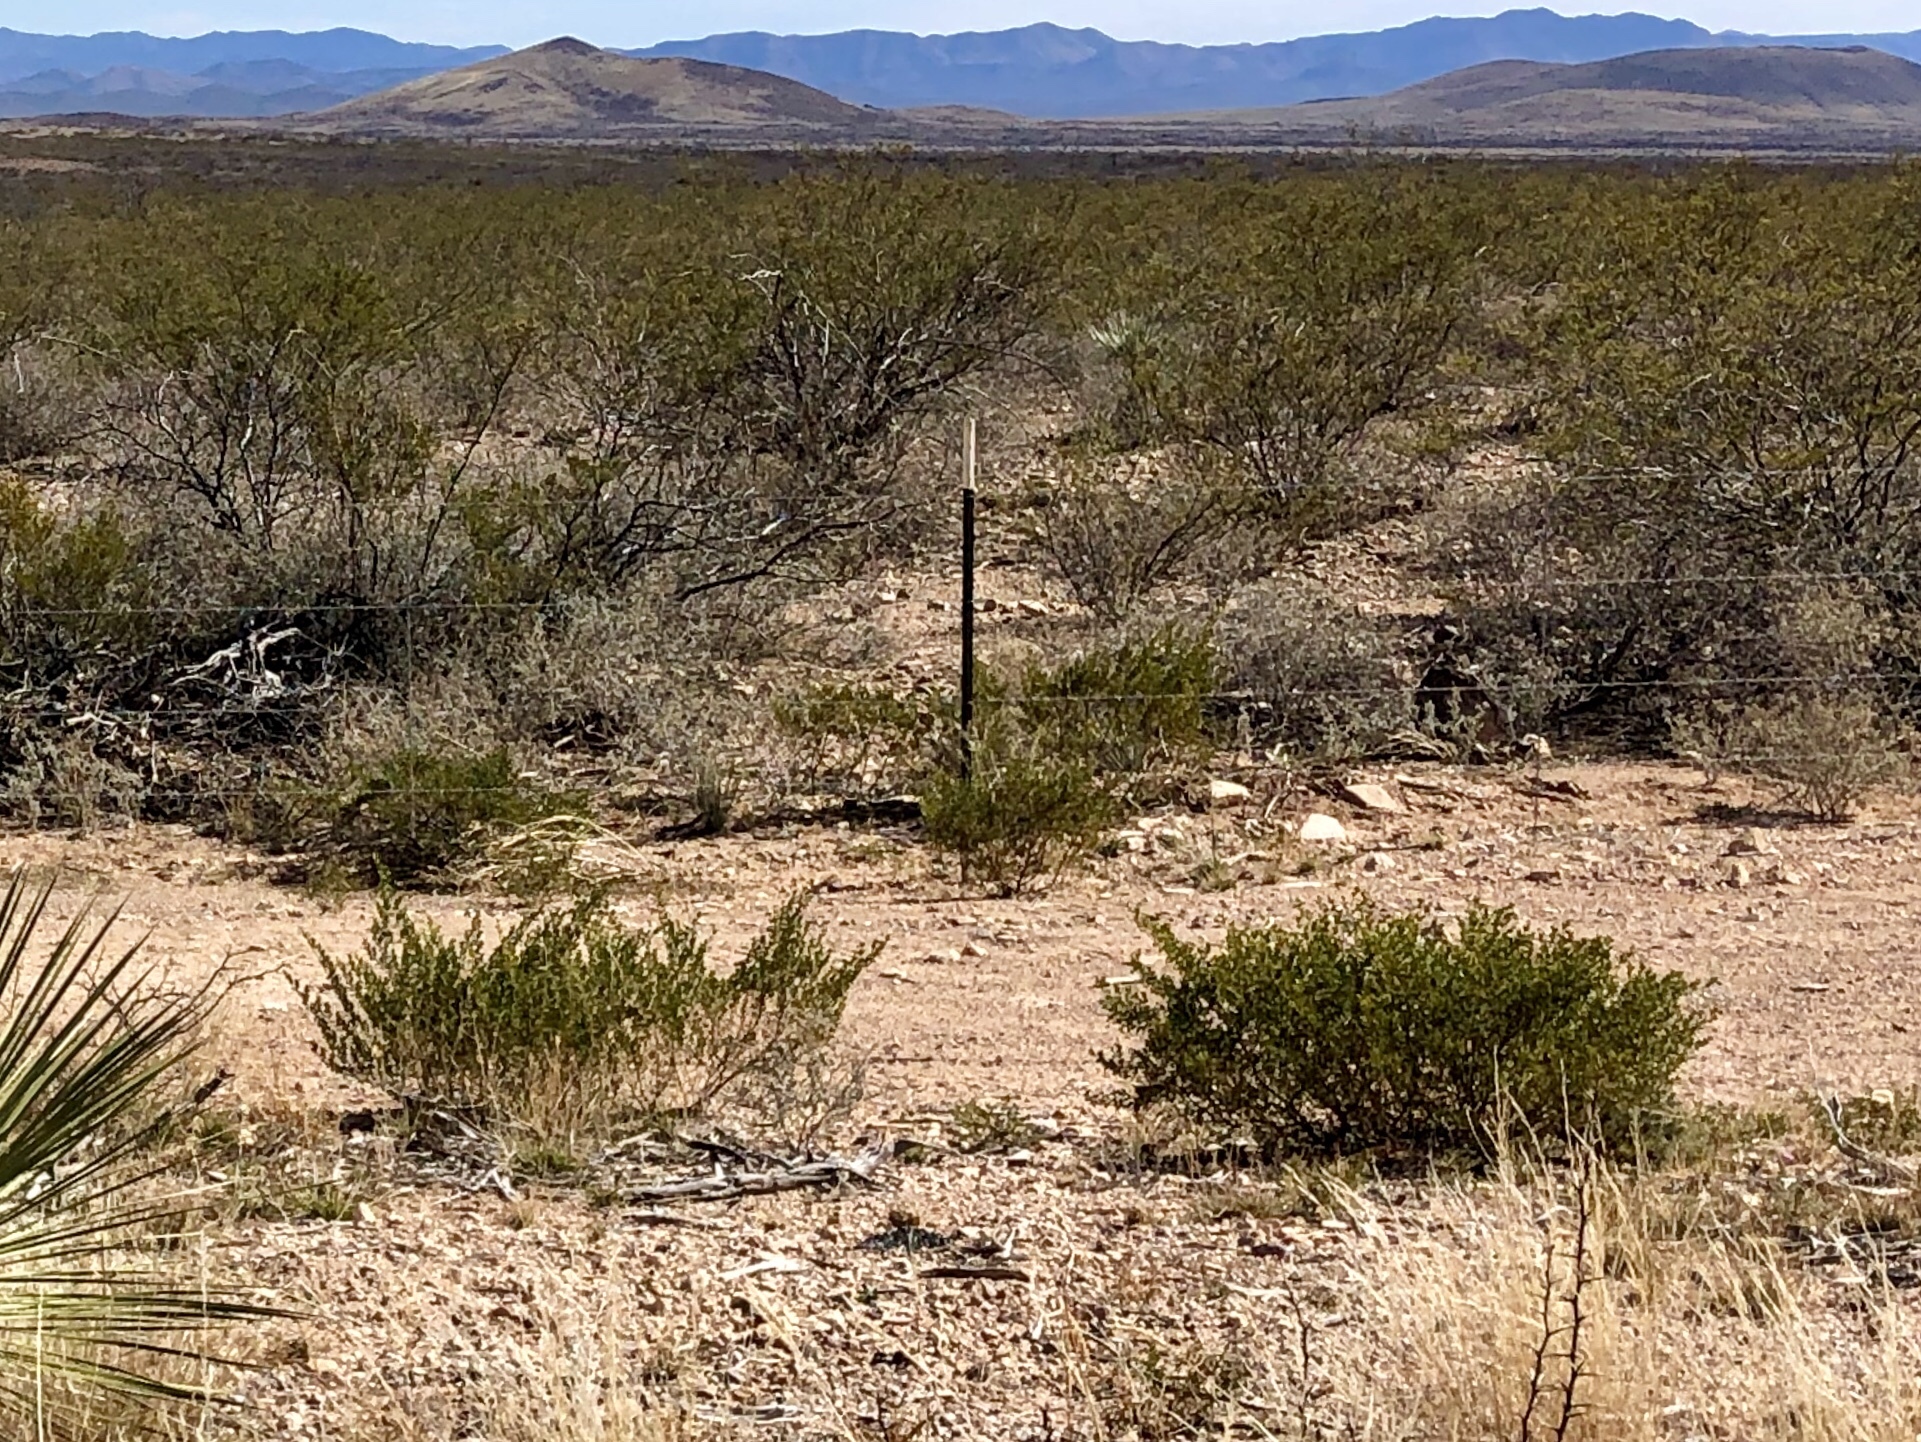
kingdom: Plantae
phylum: Tracheophyta
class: Magnoliopsida
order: Zygophyllales
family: Zygophyllaceae
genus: Larrea
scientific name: Larrea tridentata
